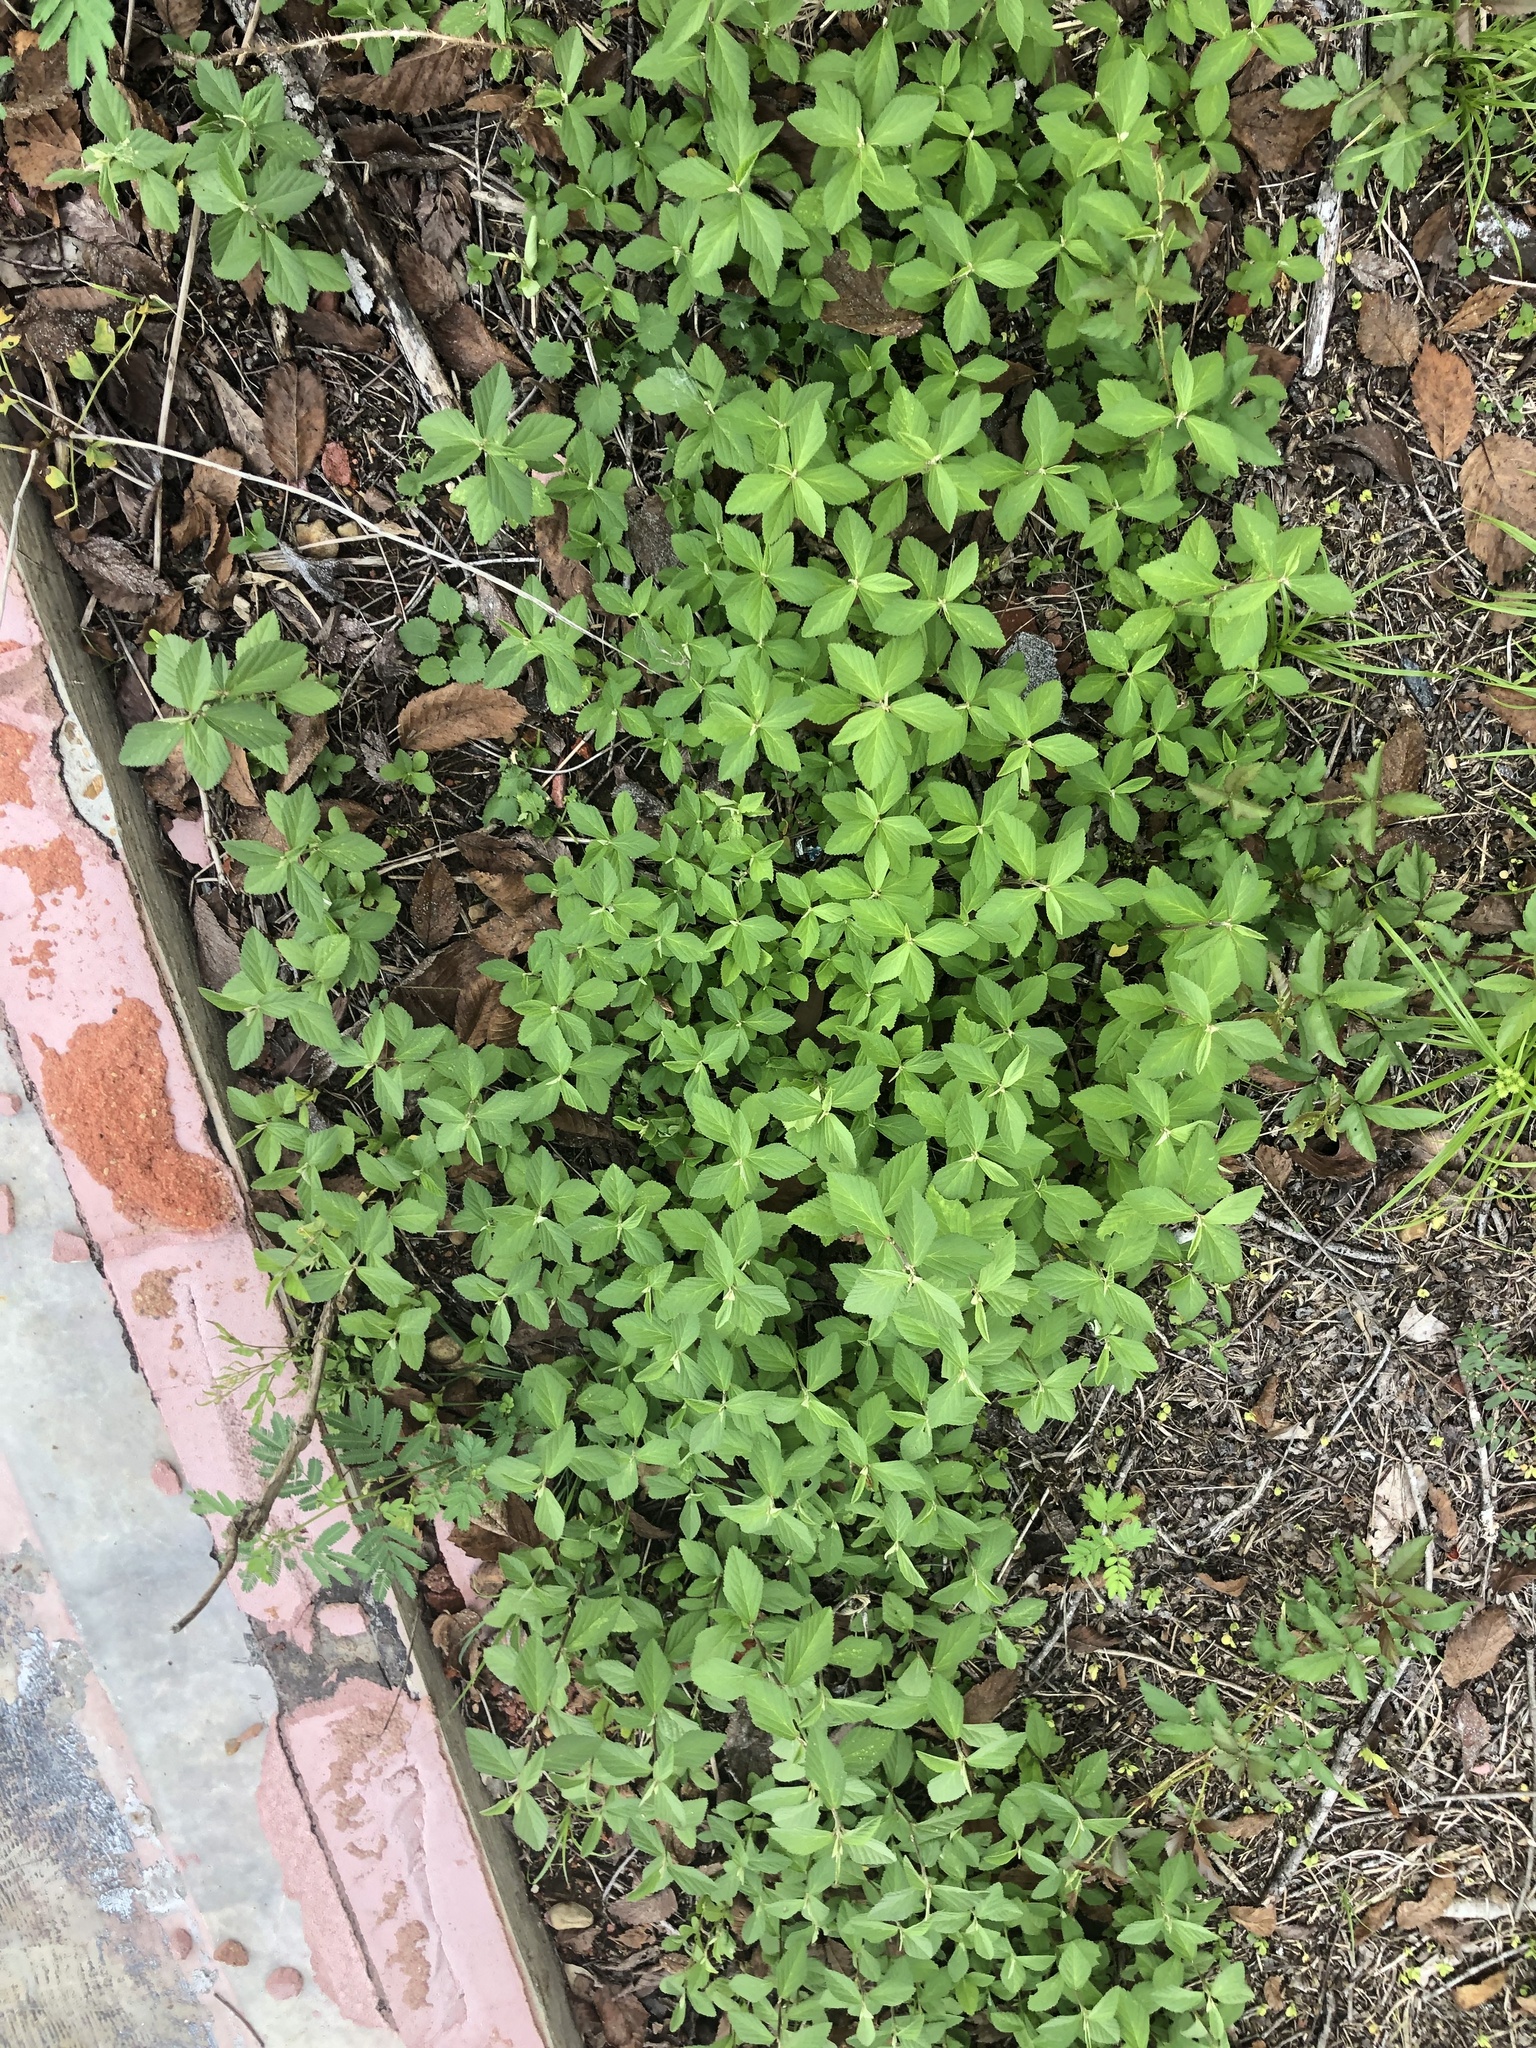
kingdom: Plantae
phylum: Tracheophyta
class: Magnoliopsida
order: Malvales
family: Malvaceae
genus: Sida
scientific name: Sida rhombifolia
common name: Queensland-hemp
